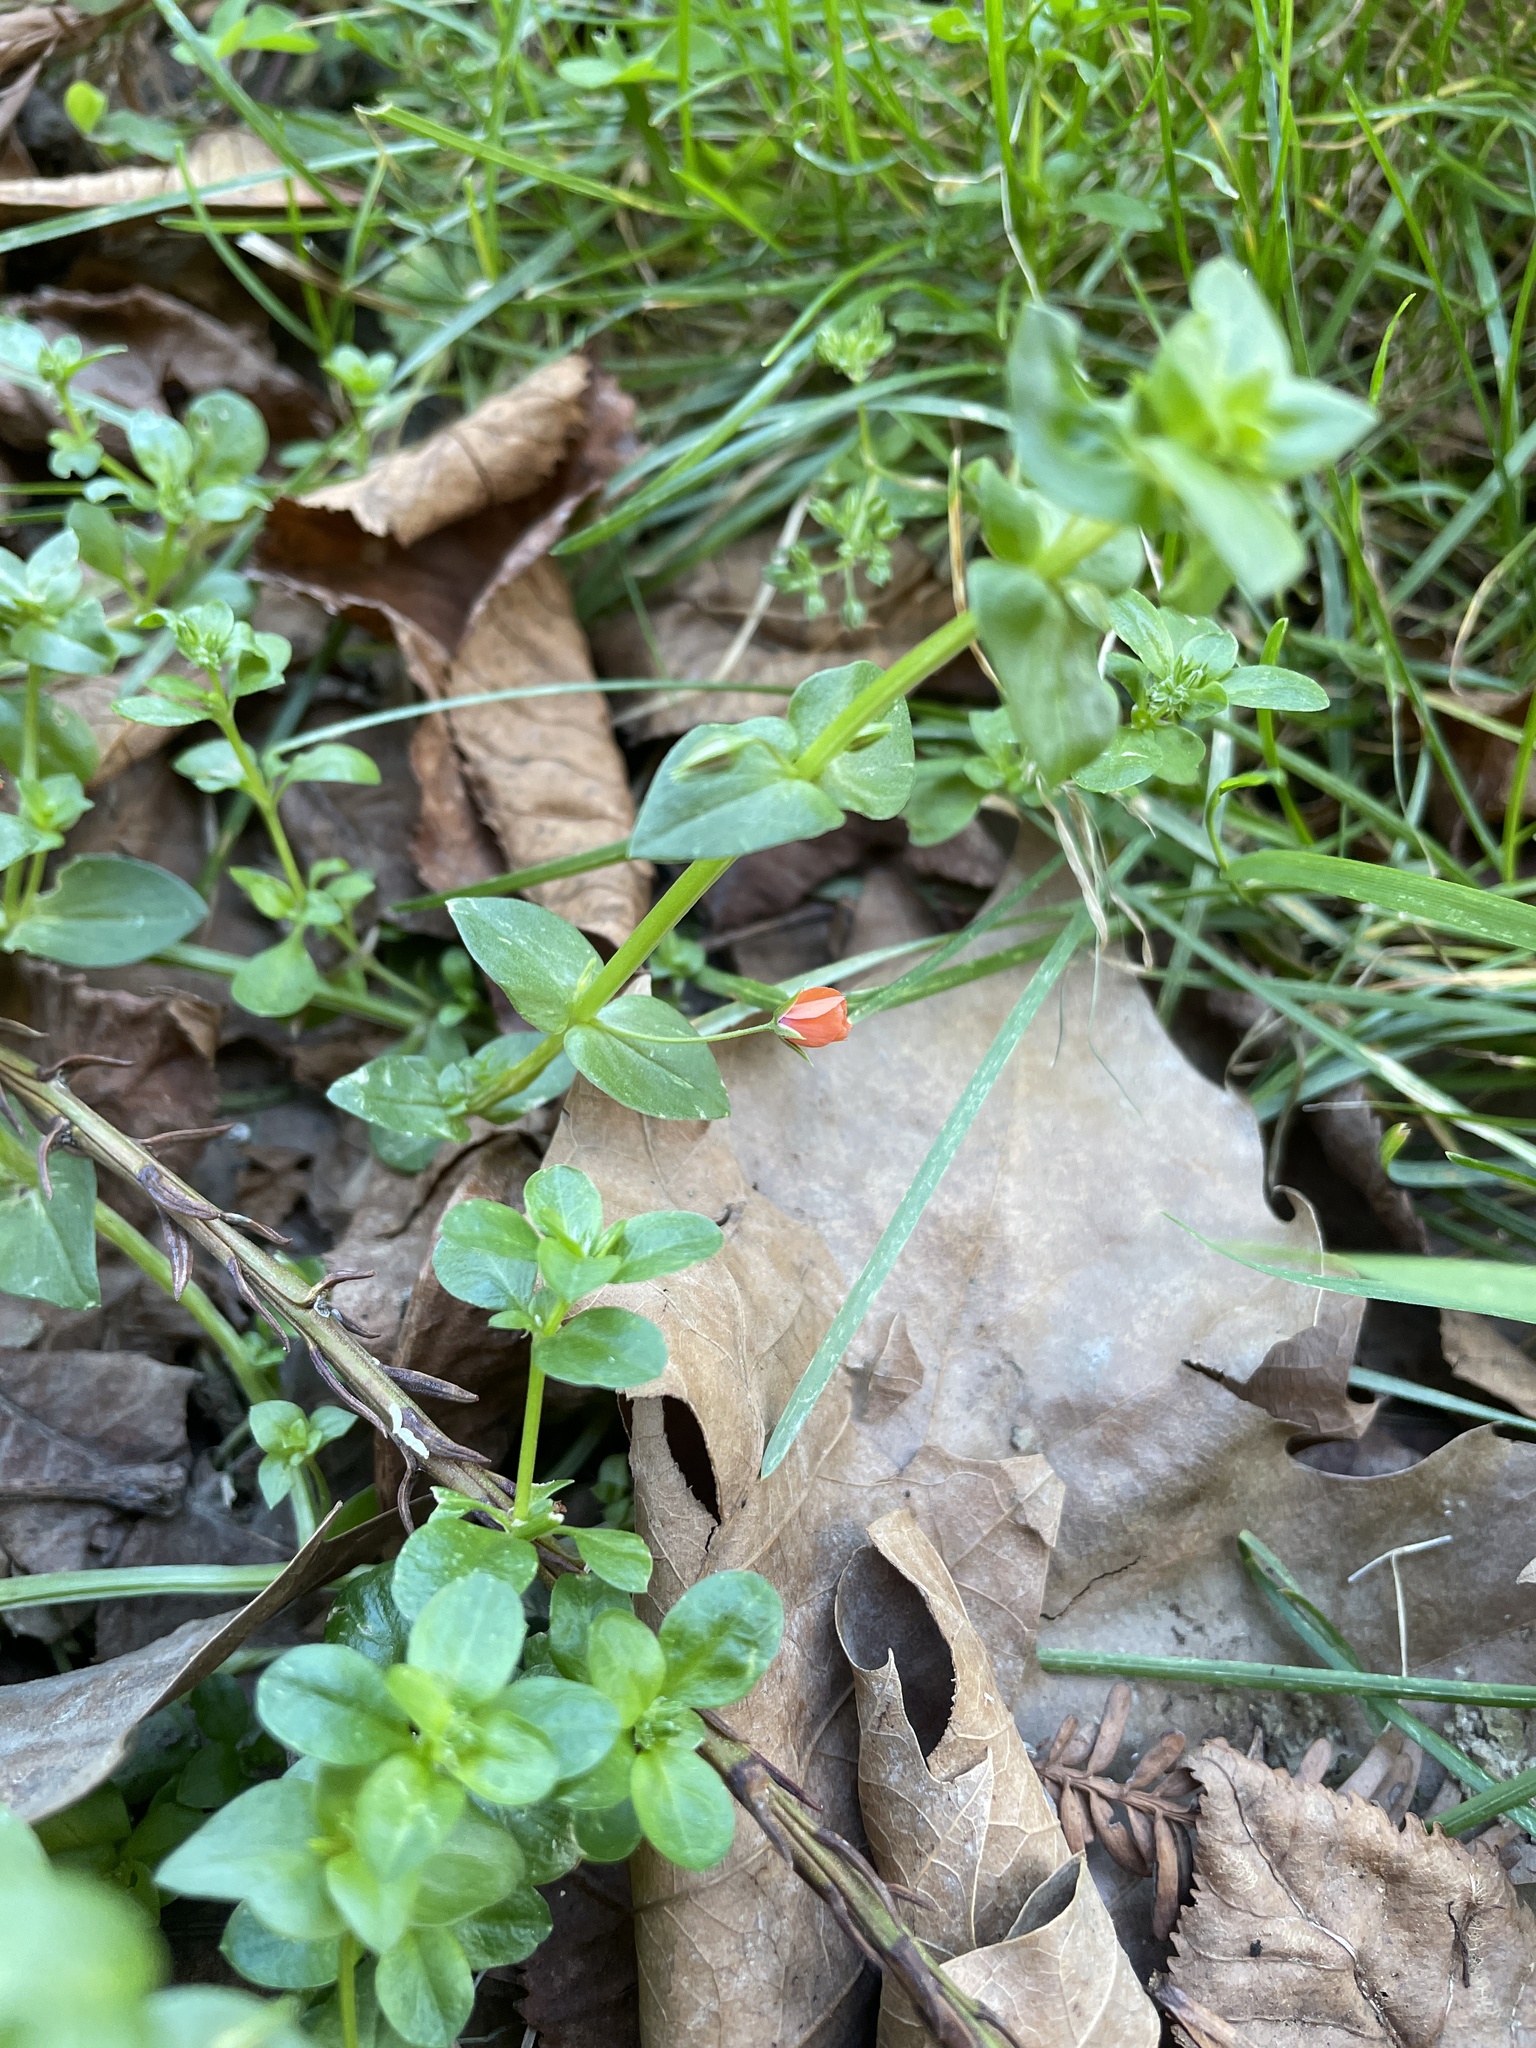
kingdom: Plantae
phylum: Tracheophyta
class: Magnoliopsida
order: Ericales
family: Primulaceae
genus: Lysimachia
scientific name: Lysimachia arvensis
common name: Scarlet pimpernel
